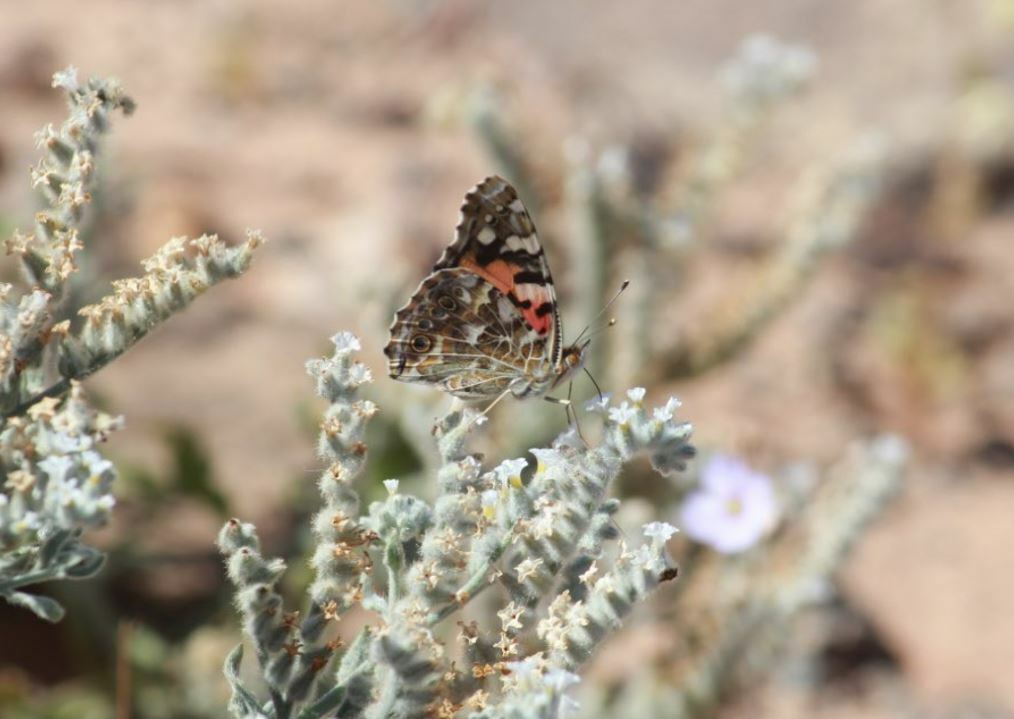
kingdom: Animalia
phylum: Arthropoda
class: Insecta
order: Lepidoptera
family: Nymphalidae
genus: Vanessa
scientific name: Vanessa cardui
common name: Painted lady
